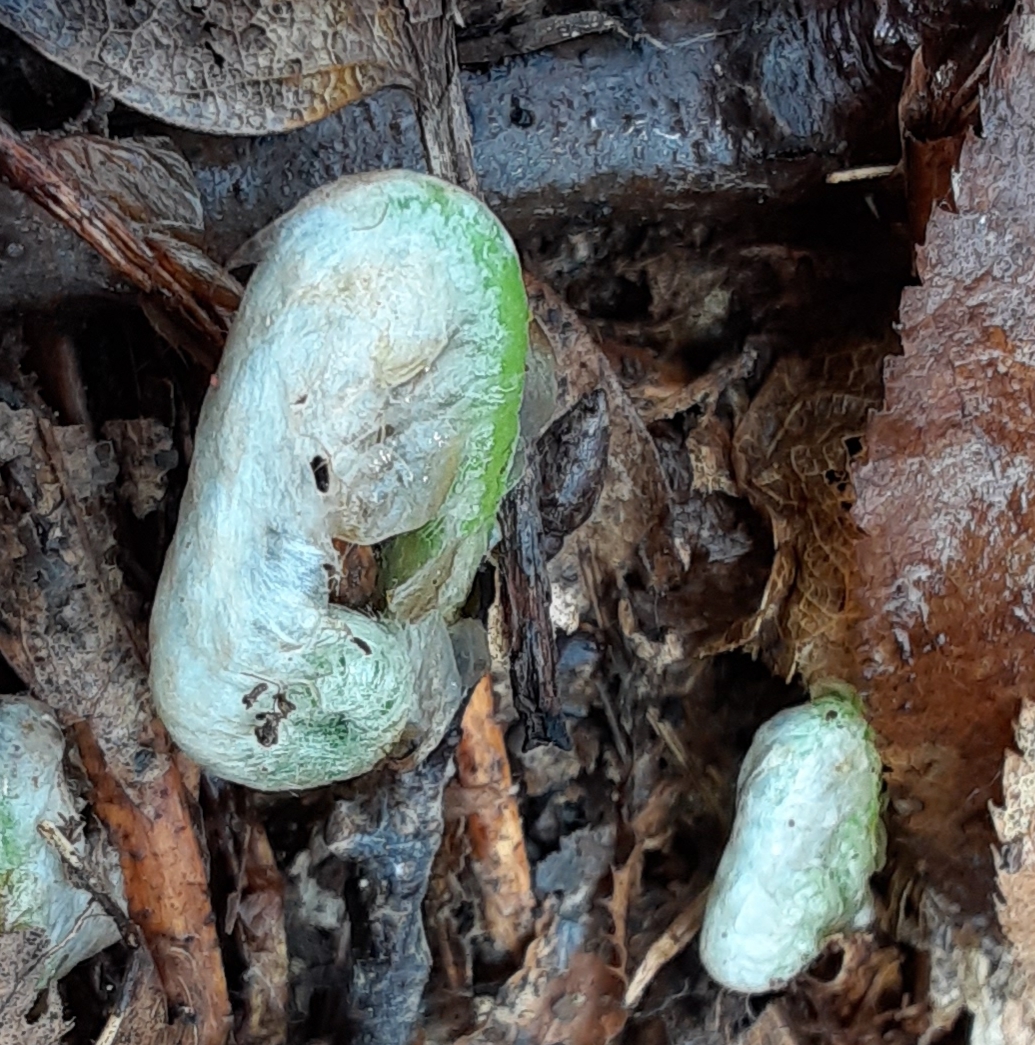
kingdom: Plantae
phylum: Tracheophyta
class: Polypodiopsida
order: Polypodiales
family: Dryopteridaceae
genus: Polystichum
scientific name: Polystichum acrostichoides
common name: Christmas fern
